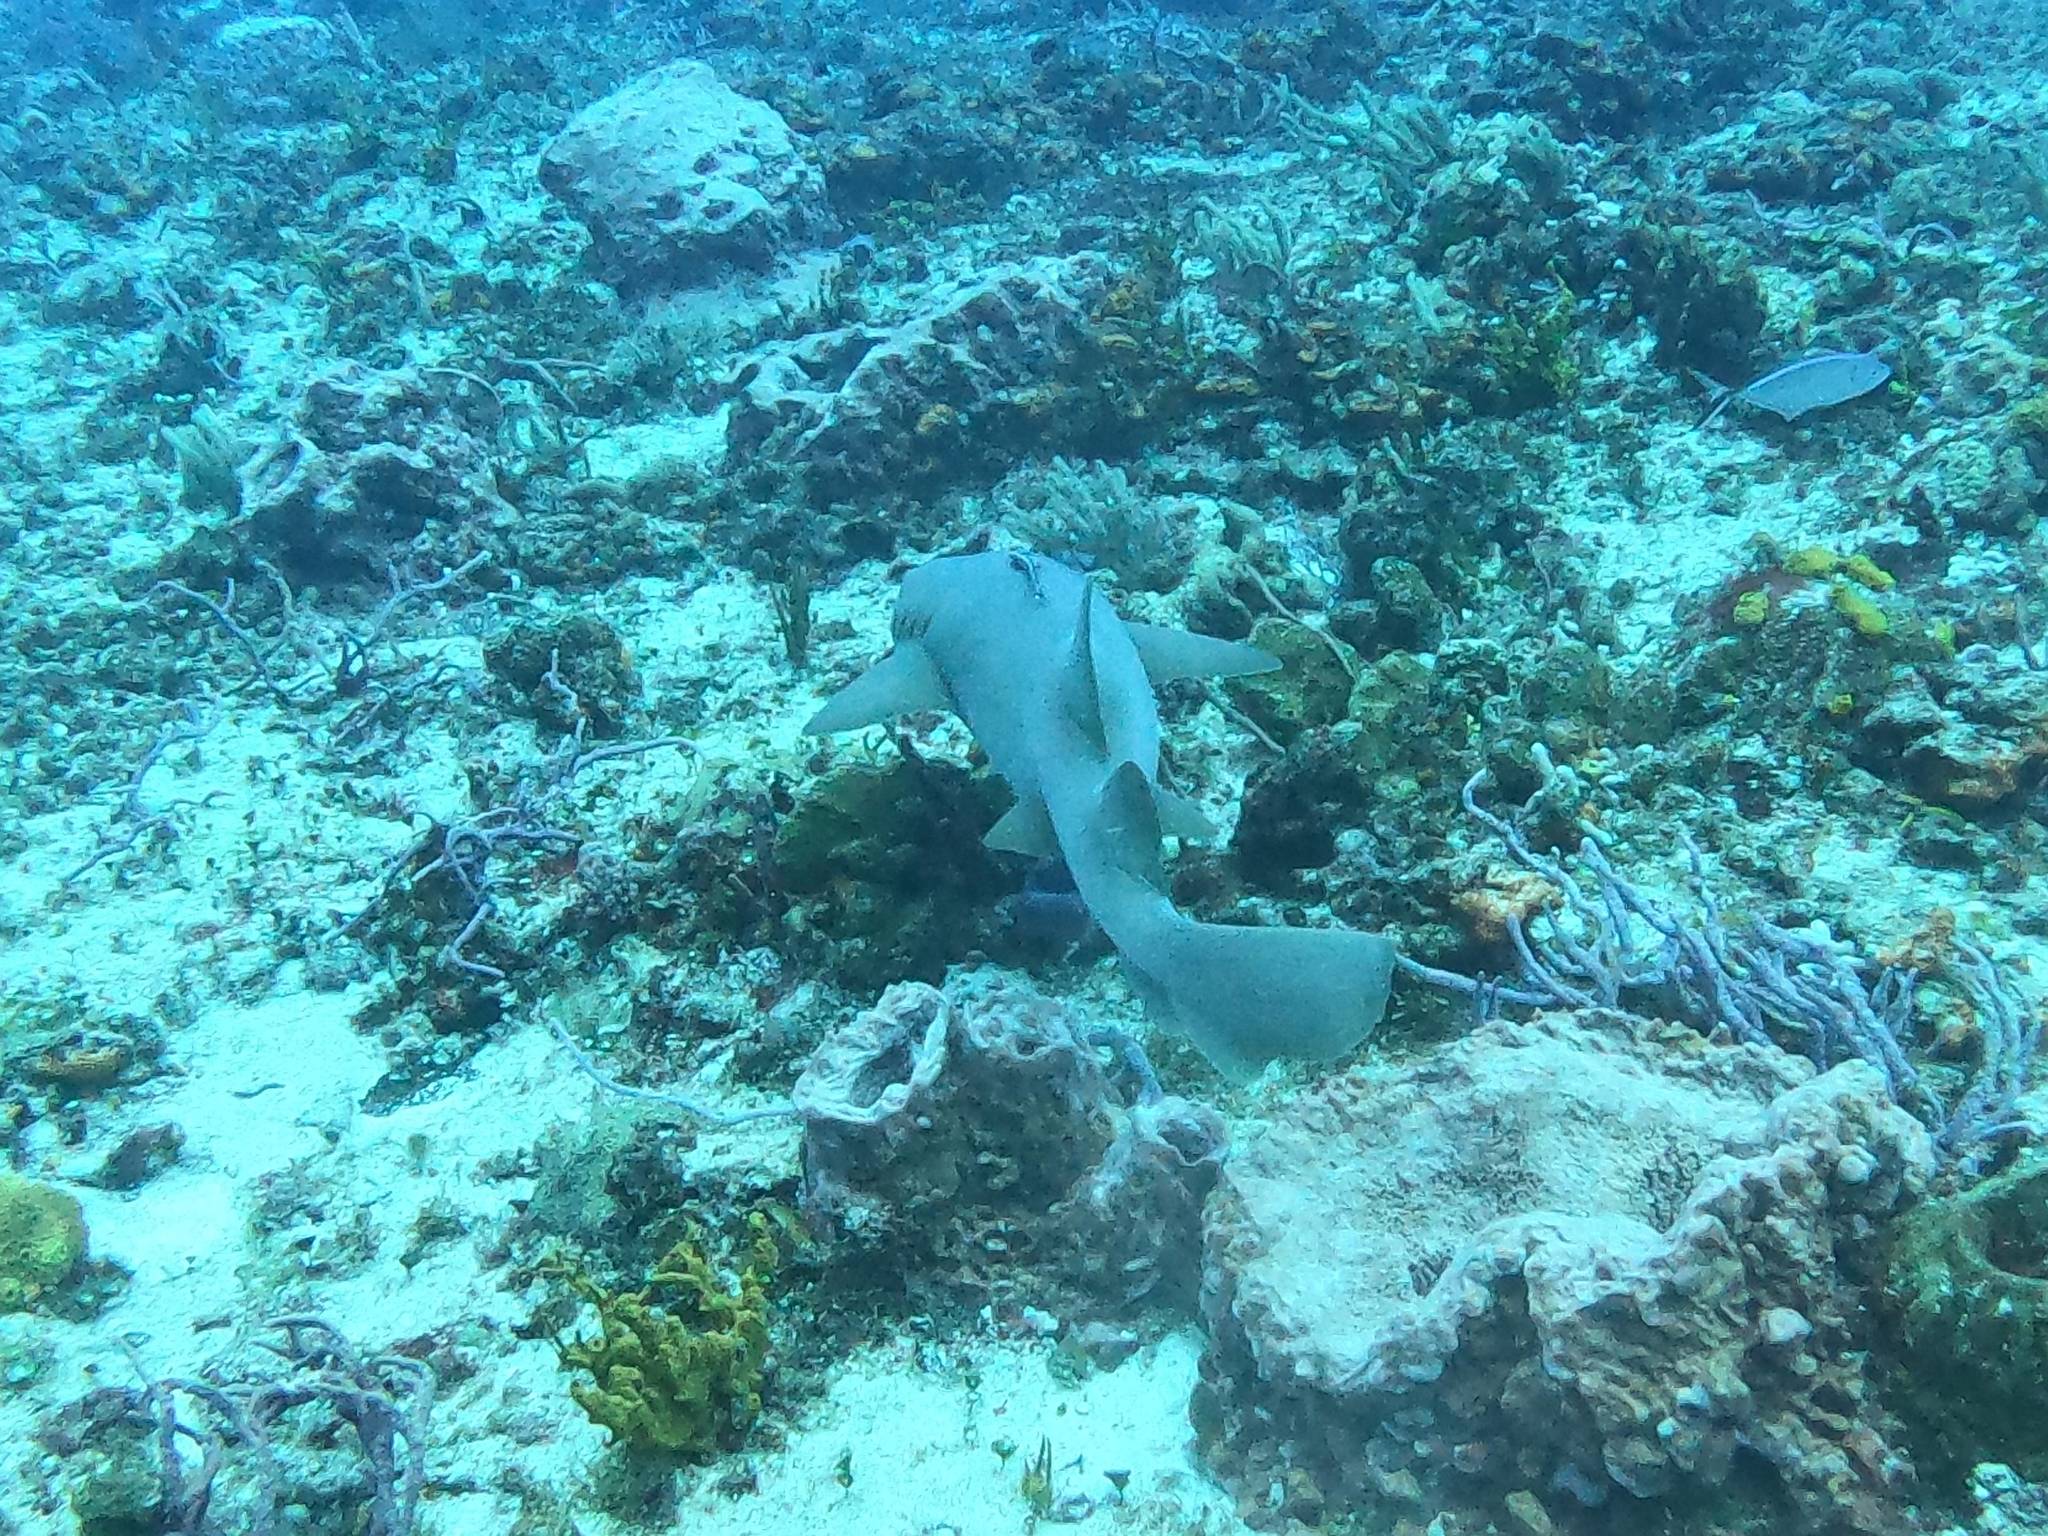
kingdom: Animalia
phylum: Chordata
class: Elasmobranchii
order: Orectolobiformes
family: Ginglymostomatidae
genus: Ginglymostoma
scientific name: Ginglymostoma cirratum
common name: Nurse shark
